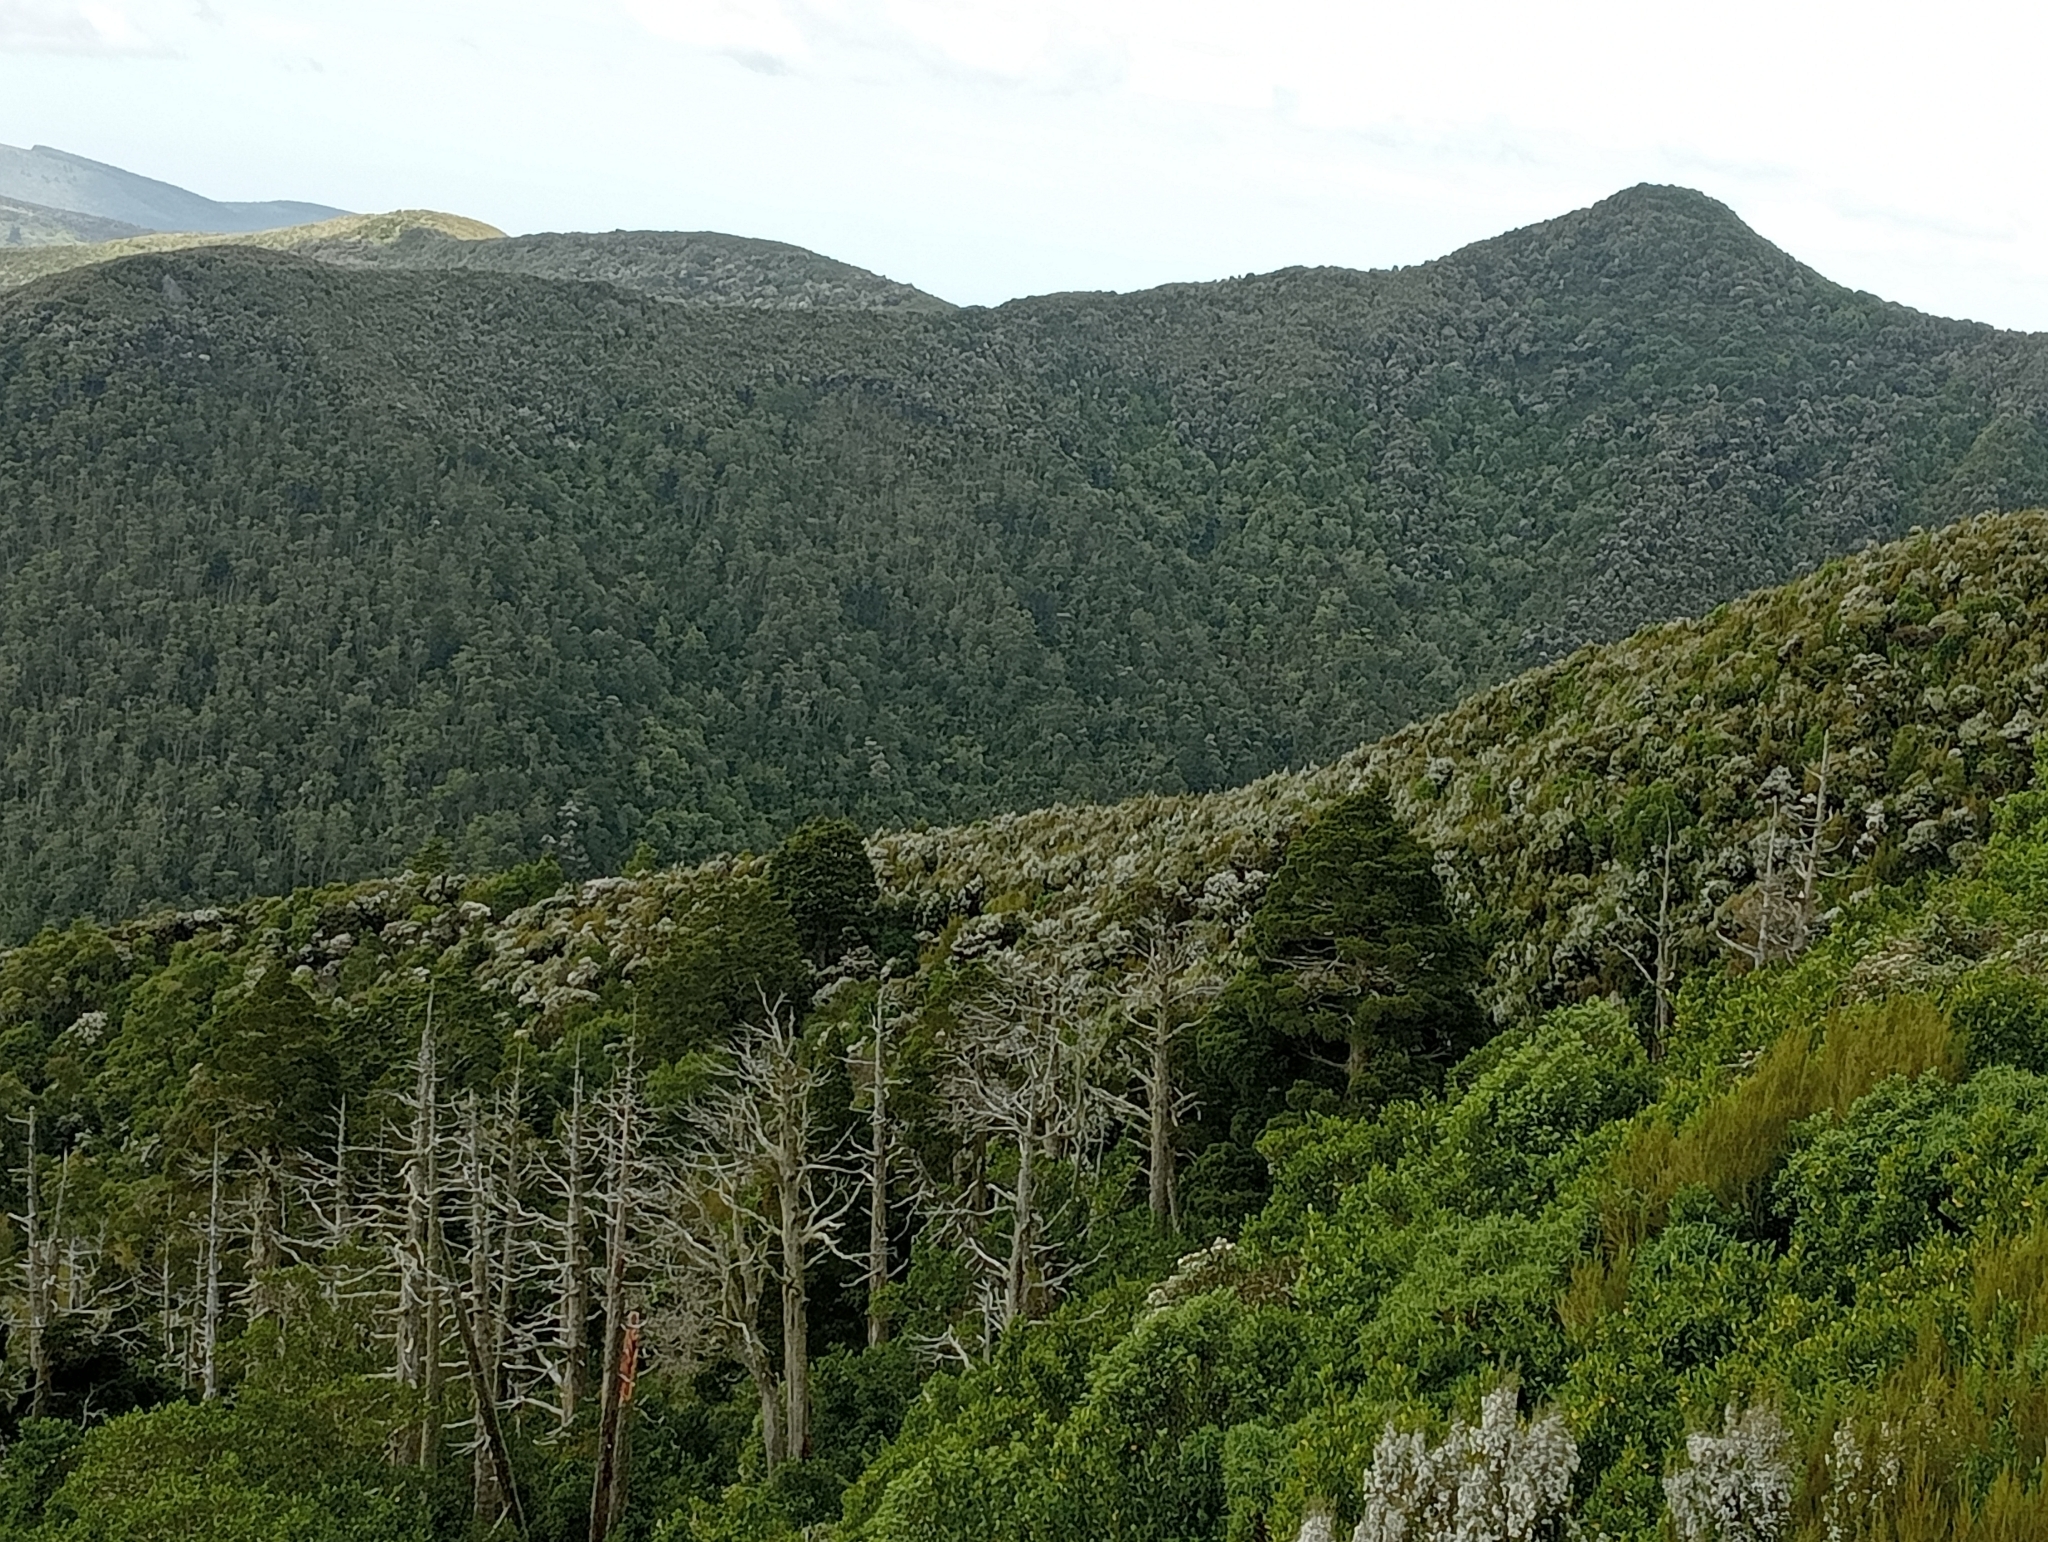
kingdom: Plantae
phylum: Tracheophyta
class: Pinopsida
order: Pinales
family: Cupressaceae
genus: Libocedrus
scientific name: Libocedrus bidwillii
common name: Cedar
